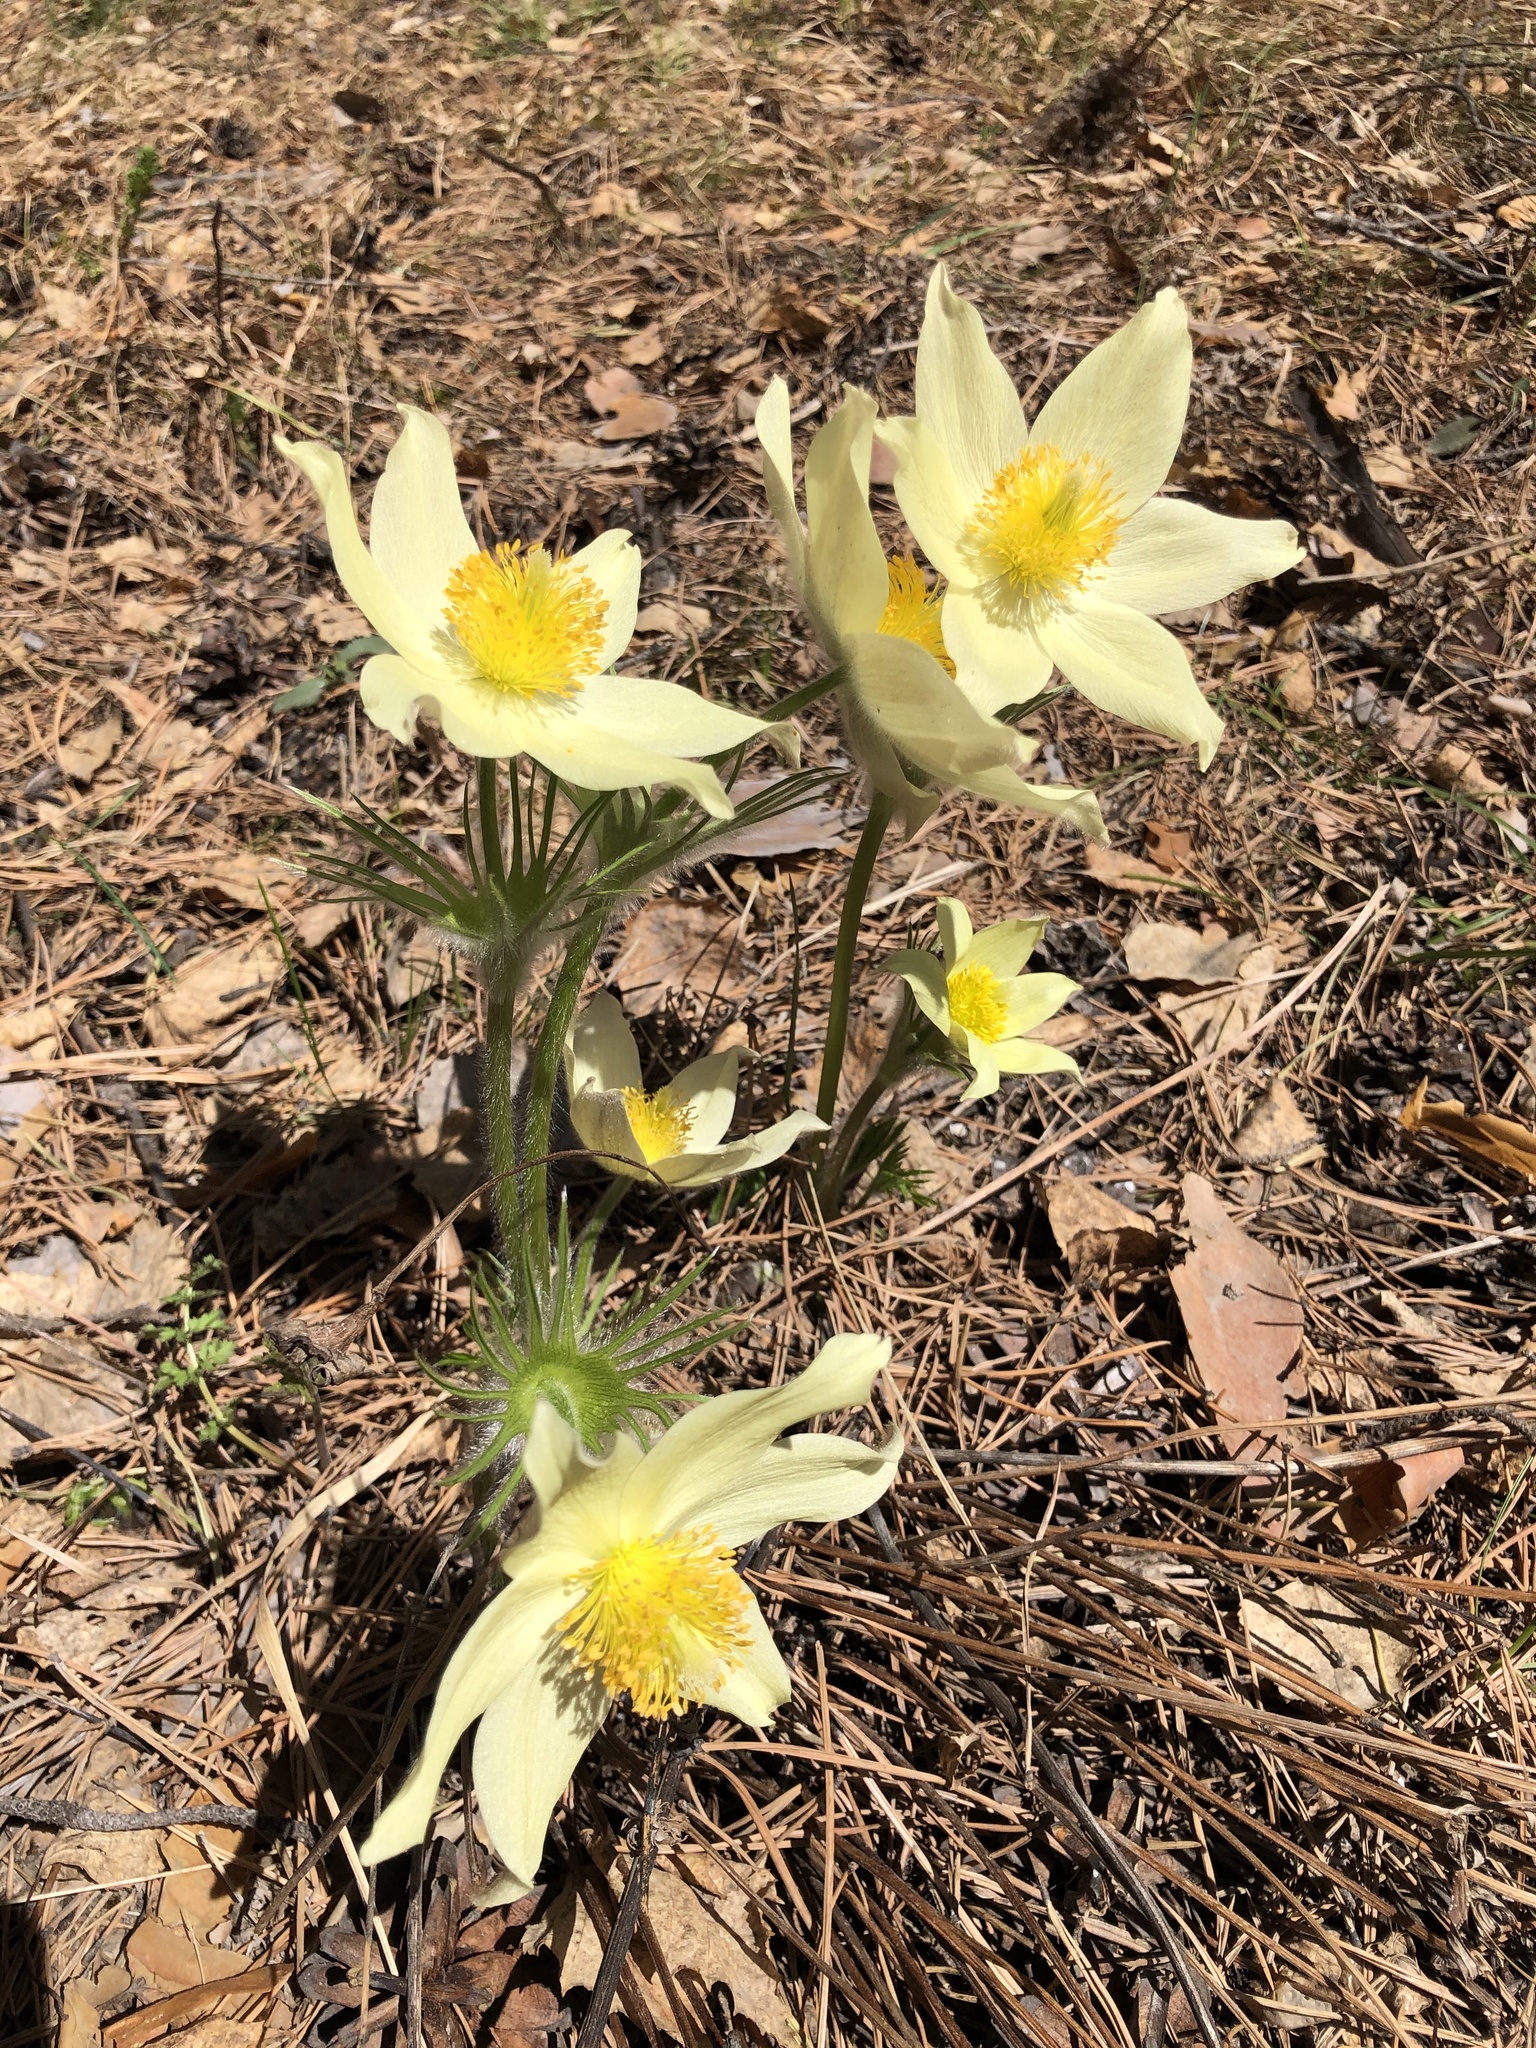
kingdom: Plantae
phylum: Tracheophyta
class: Magnoliopsida
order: Ranunculales
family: Ranunculaceae
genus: Pulsatilla
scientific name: Pulsatilla patens
